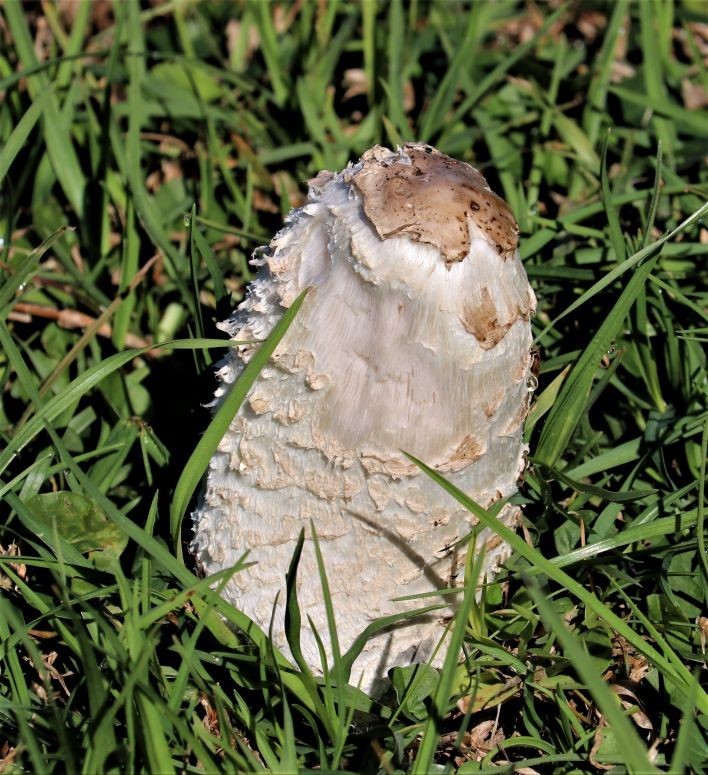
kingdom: Fungi
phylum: Basidiomycota
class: Agaricomycetes
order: Agaricales
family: Agaricaceae
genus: Coprinus
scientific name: Coprinus comatus
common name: Lawyer's wig
